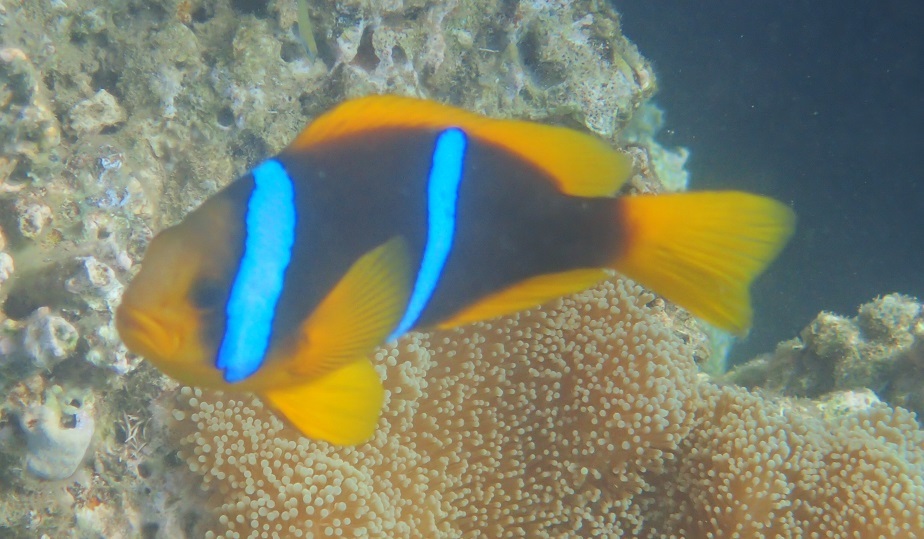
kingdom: Animalia
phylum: Chordata
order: Perciformes
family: Pomacentridae
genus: Amphiprion
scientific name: Amphiprion chrysopterus
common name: Orange-fin anemonefish
